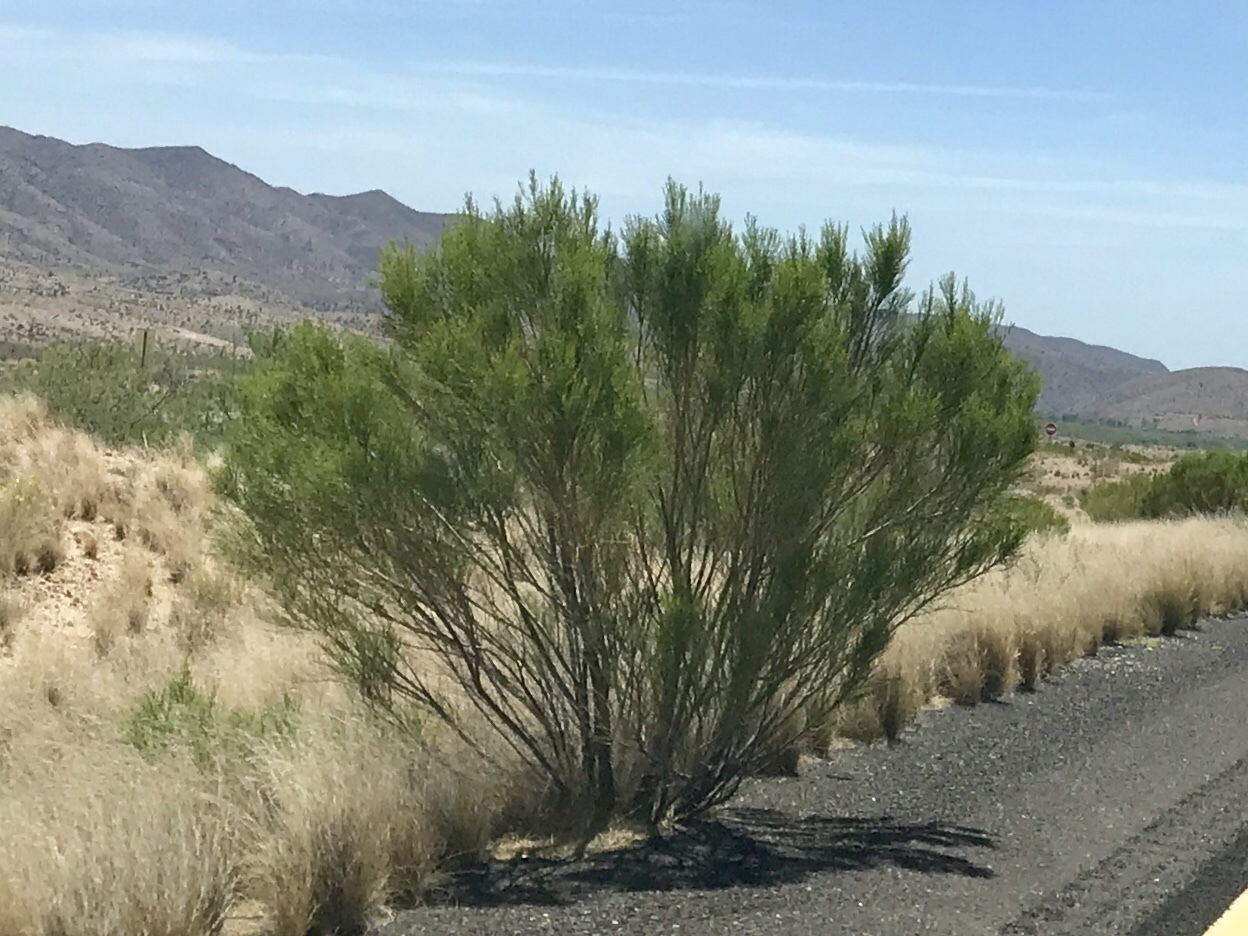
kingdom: Plantae
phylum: Tracheophyta
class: Magnoliopsida
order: Asterales
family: Asteraceae
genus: Baccharis
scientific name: Baccharis sarothroides
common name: Desert-broom
